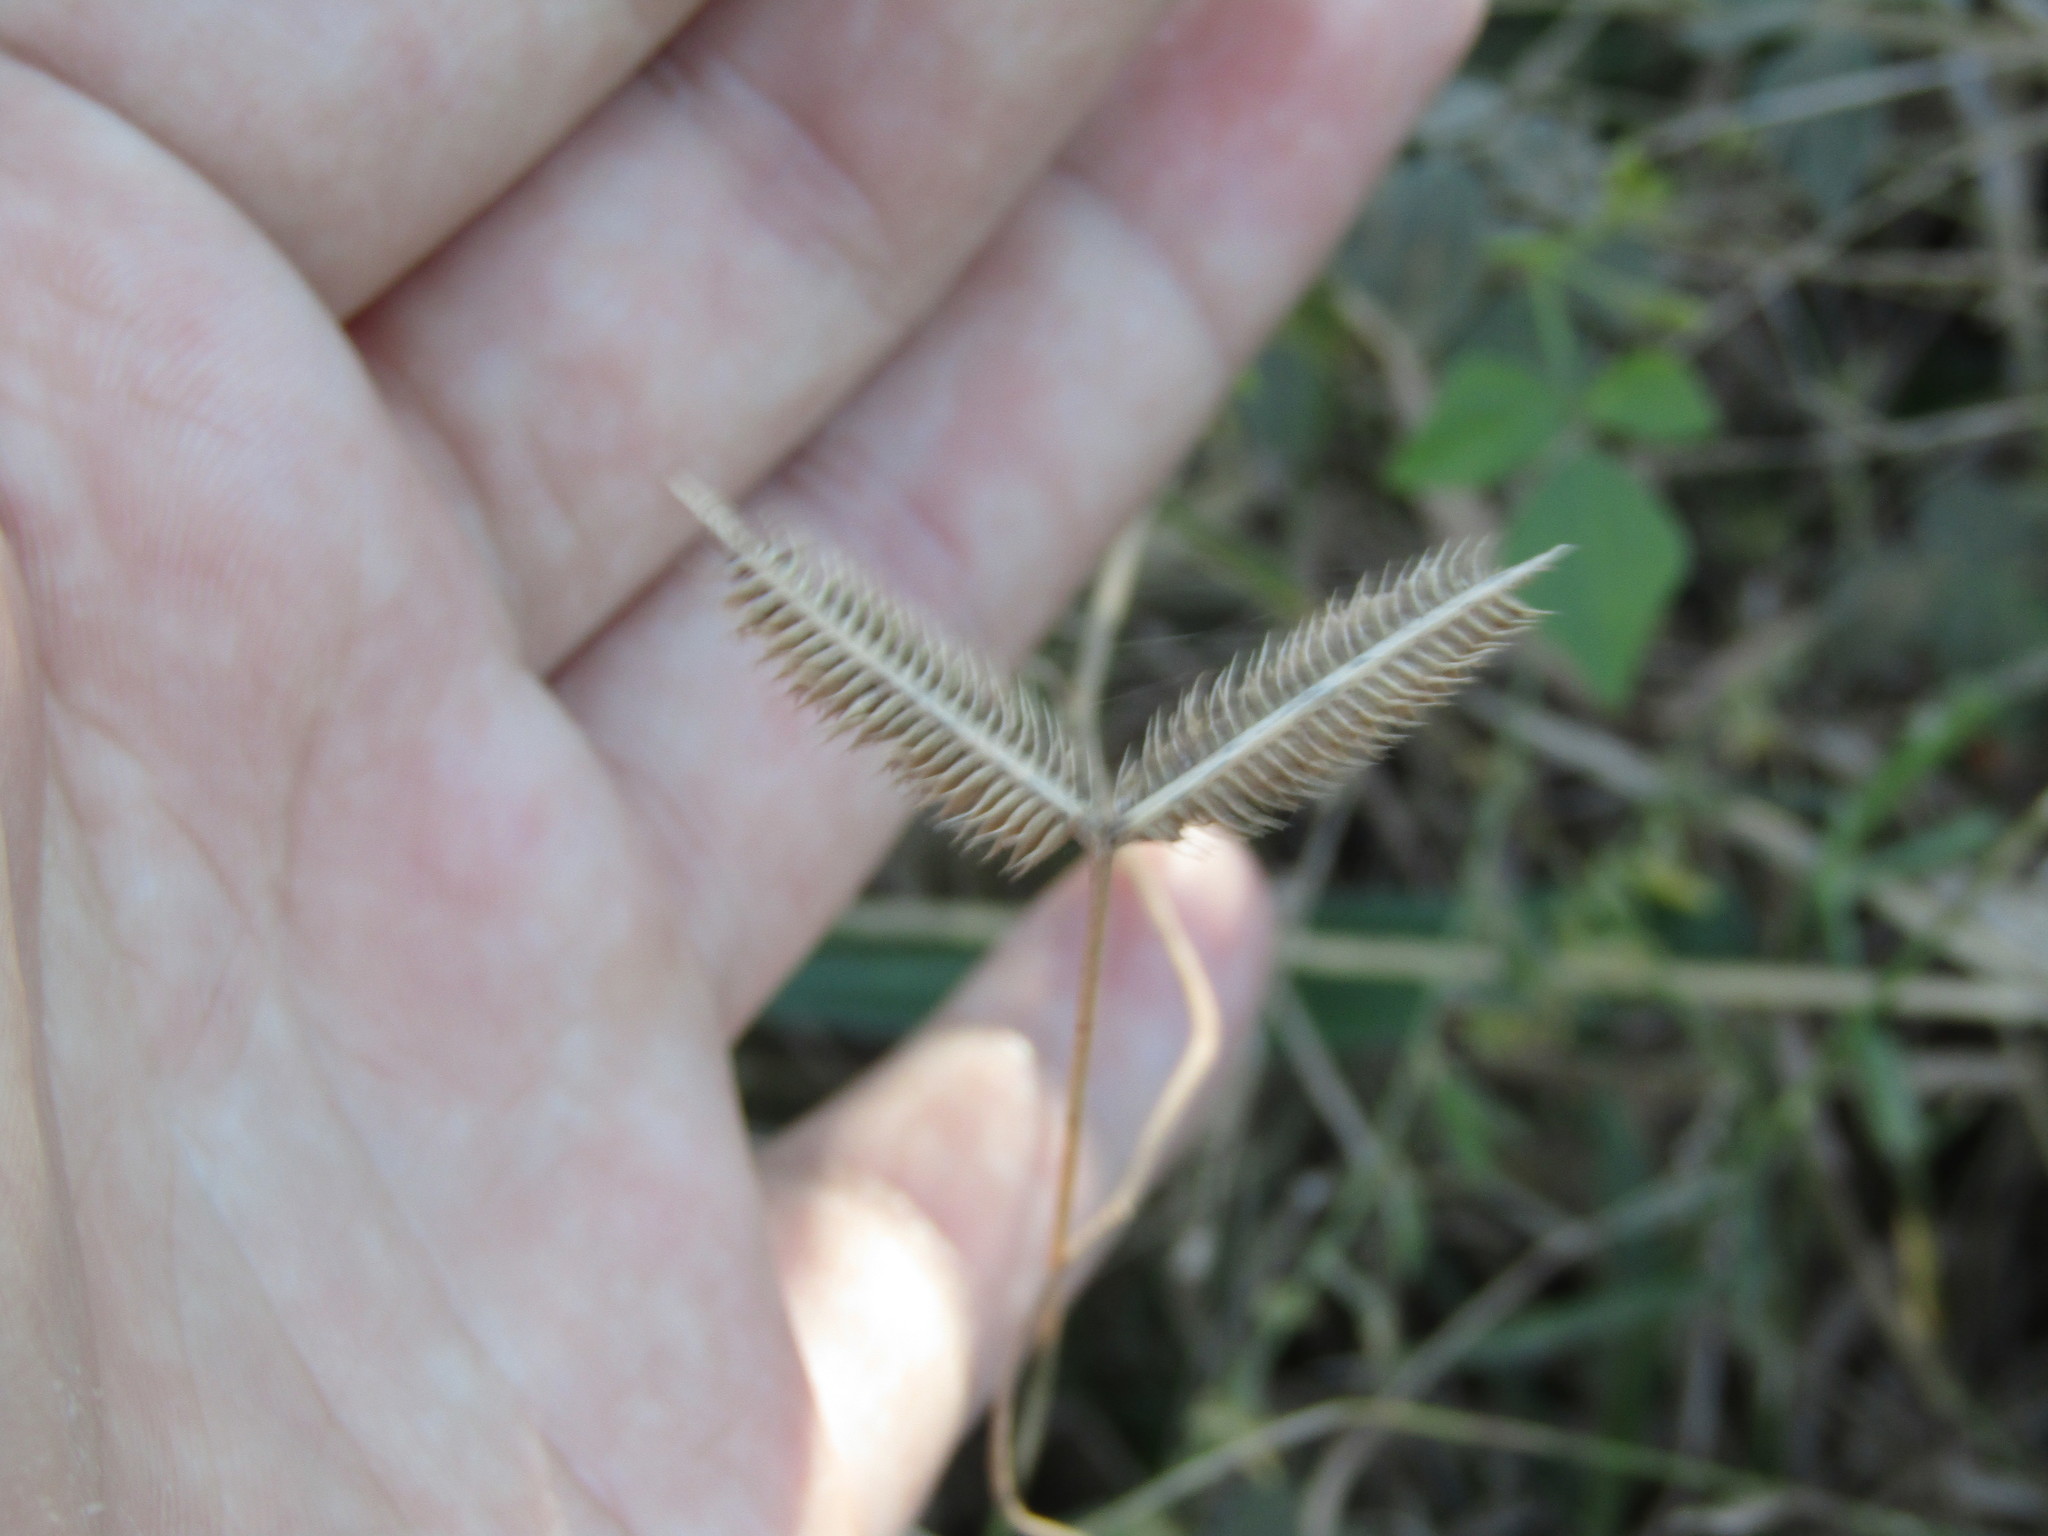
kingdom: Plantae
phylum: Tracheophyta
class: Liliopsida
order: Poales
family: Poaceae
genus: Dactyloctenium
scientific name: Dactyloctenium aegyptium
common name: Egyptian grass
